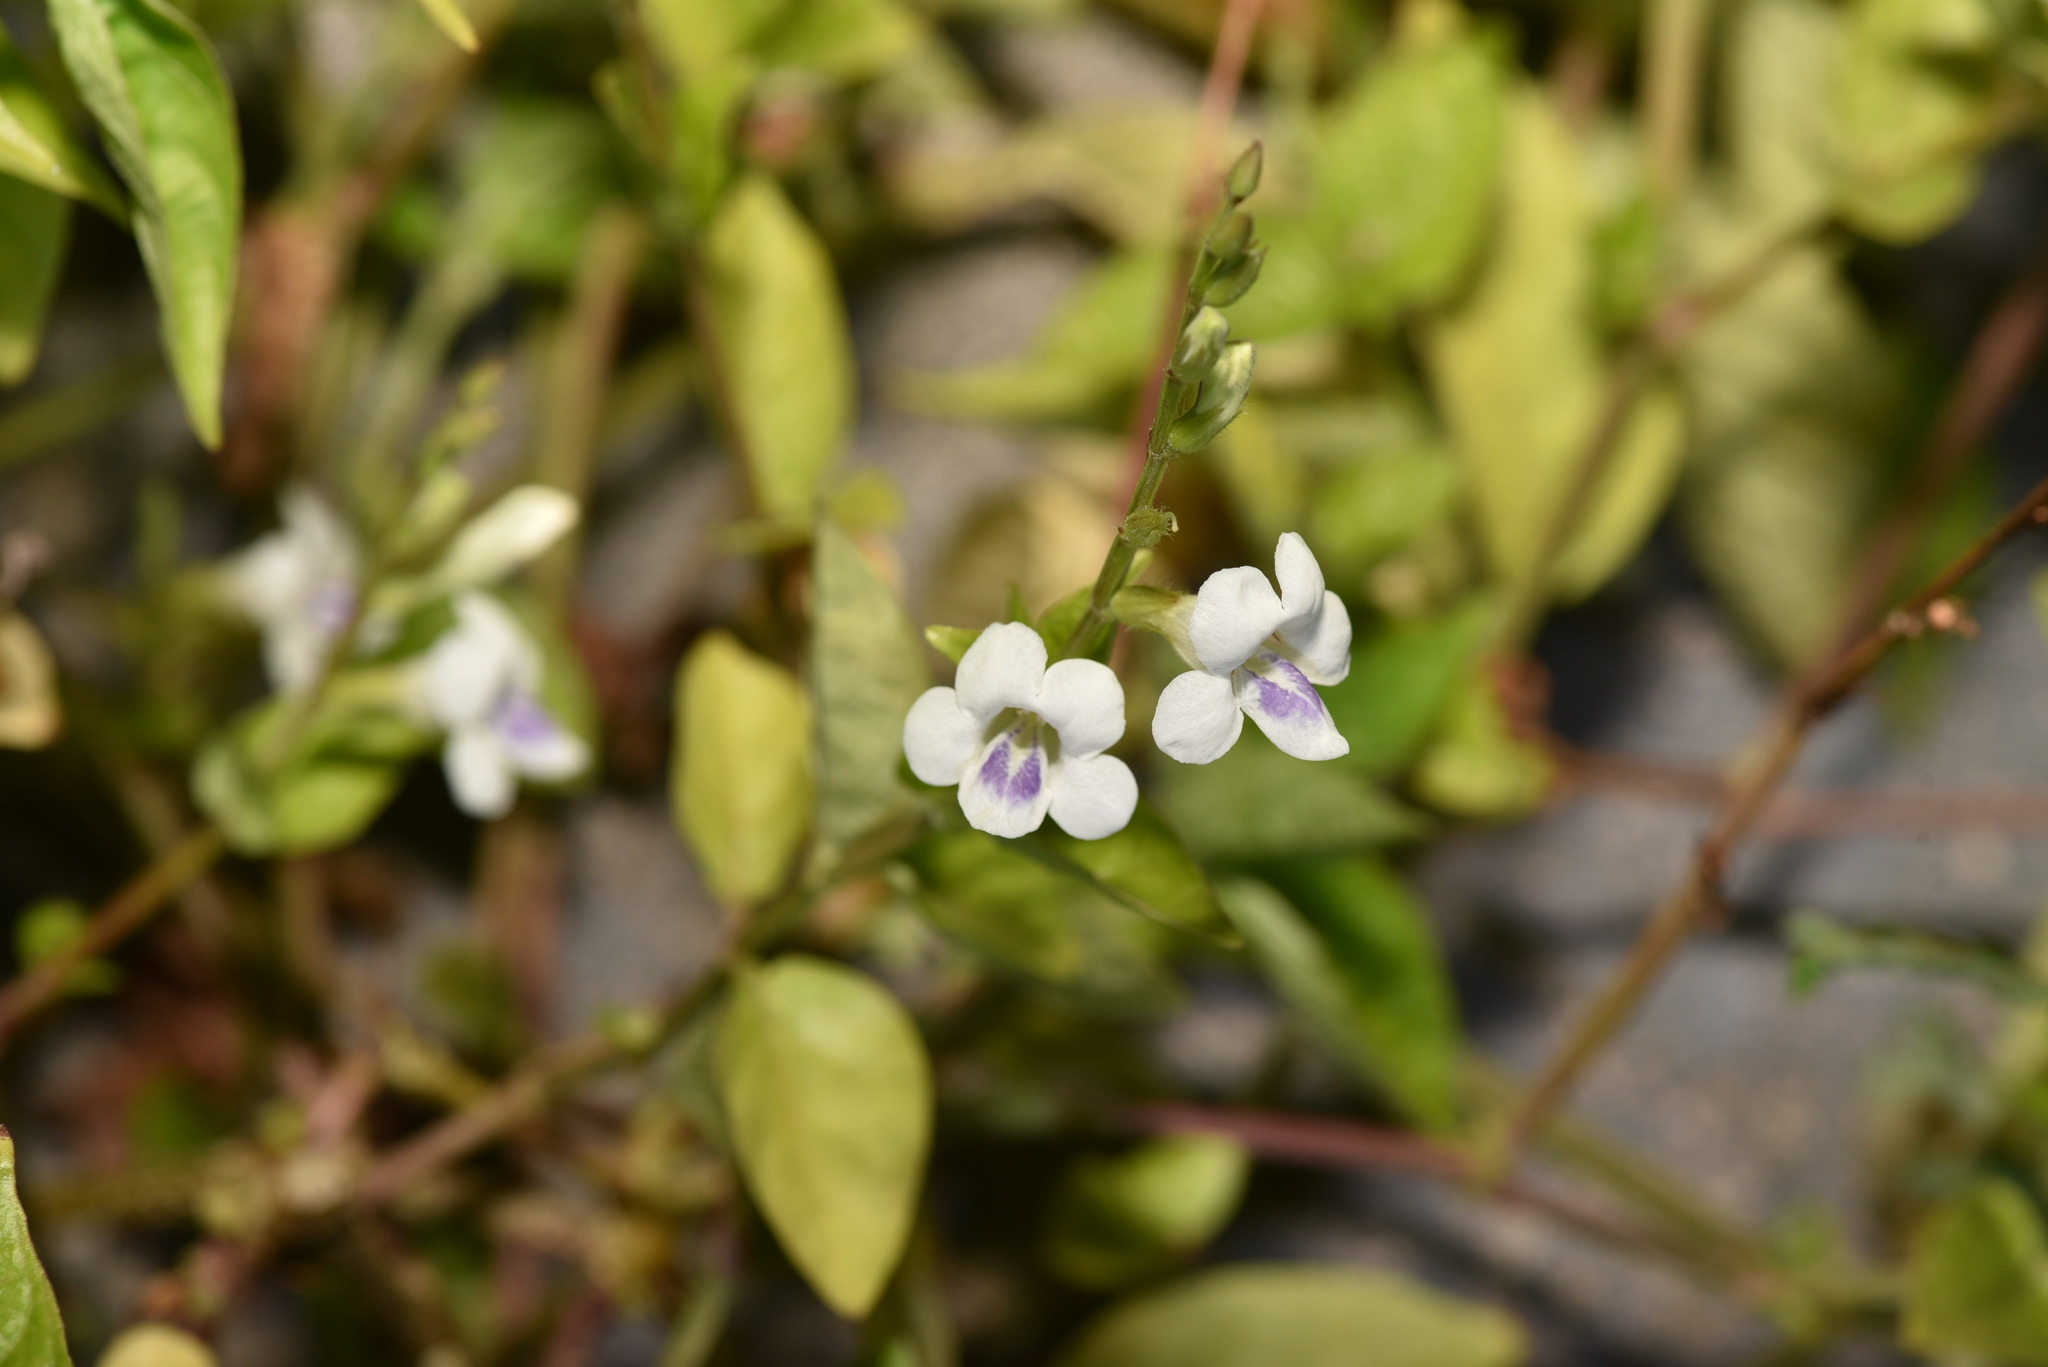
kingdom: Plantae
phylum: Tracheophyta
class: Magnoliopsida
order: Lamiales
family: Acanthaceae
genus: Asystasia
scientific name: Asystasia intrusa
